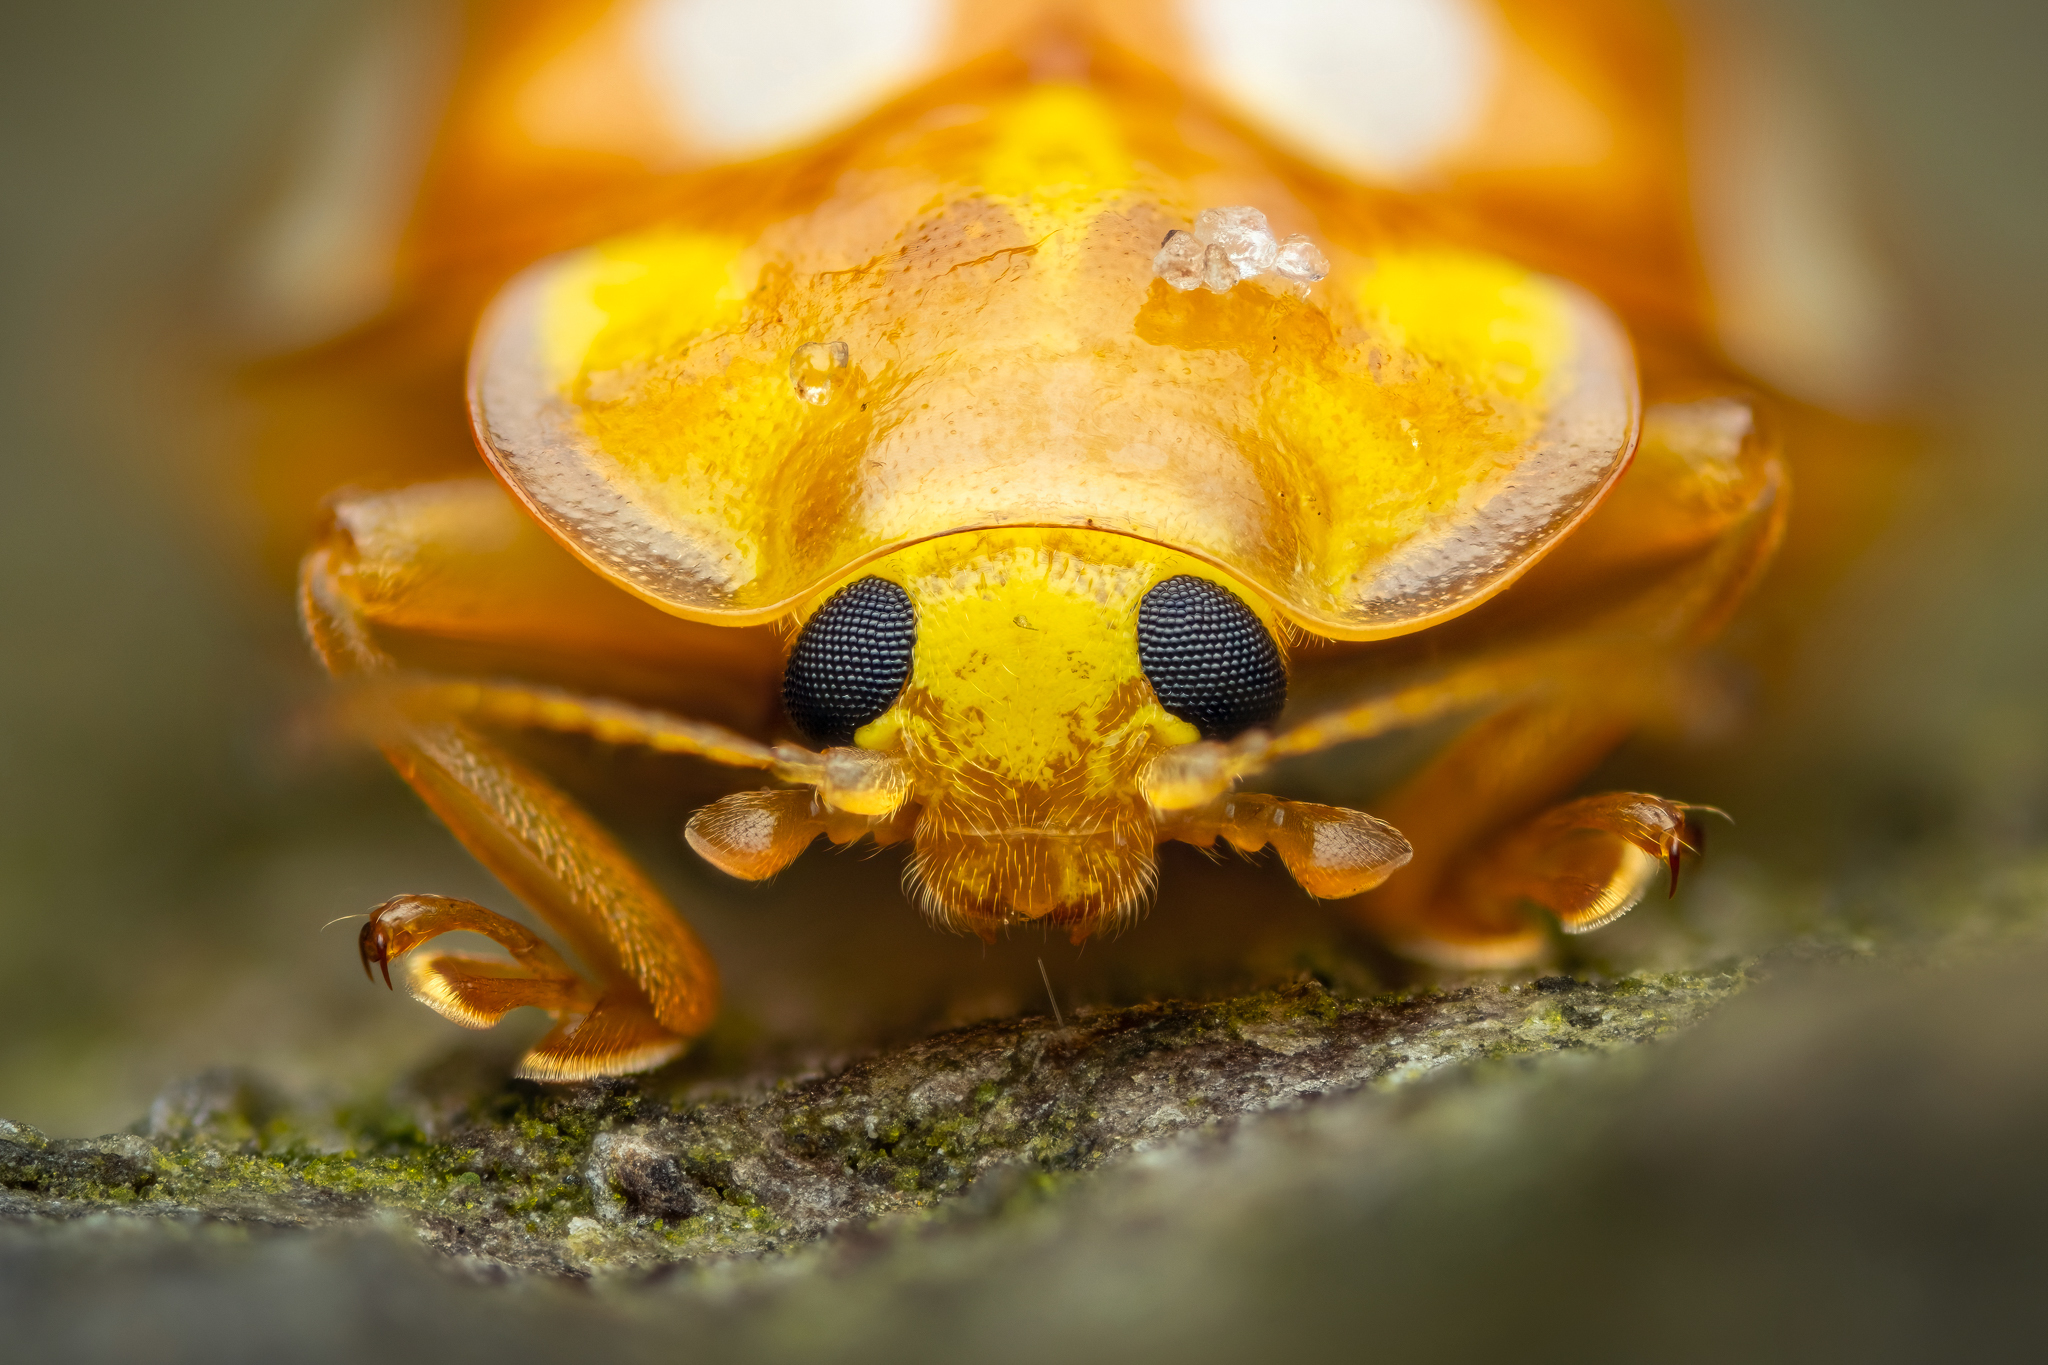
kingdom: Animalia
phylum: Arthropoda
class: Insecta
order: Coleoptera
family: Coccinellidae
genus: Halyzia
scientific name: Halyzia sedecimguttata
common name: Orange ladybird
